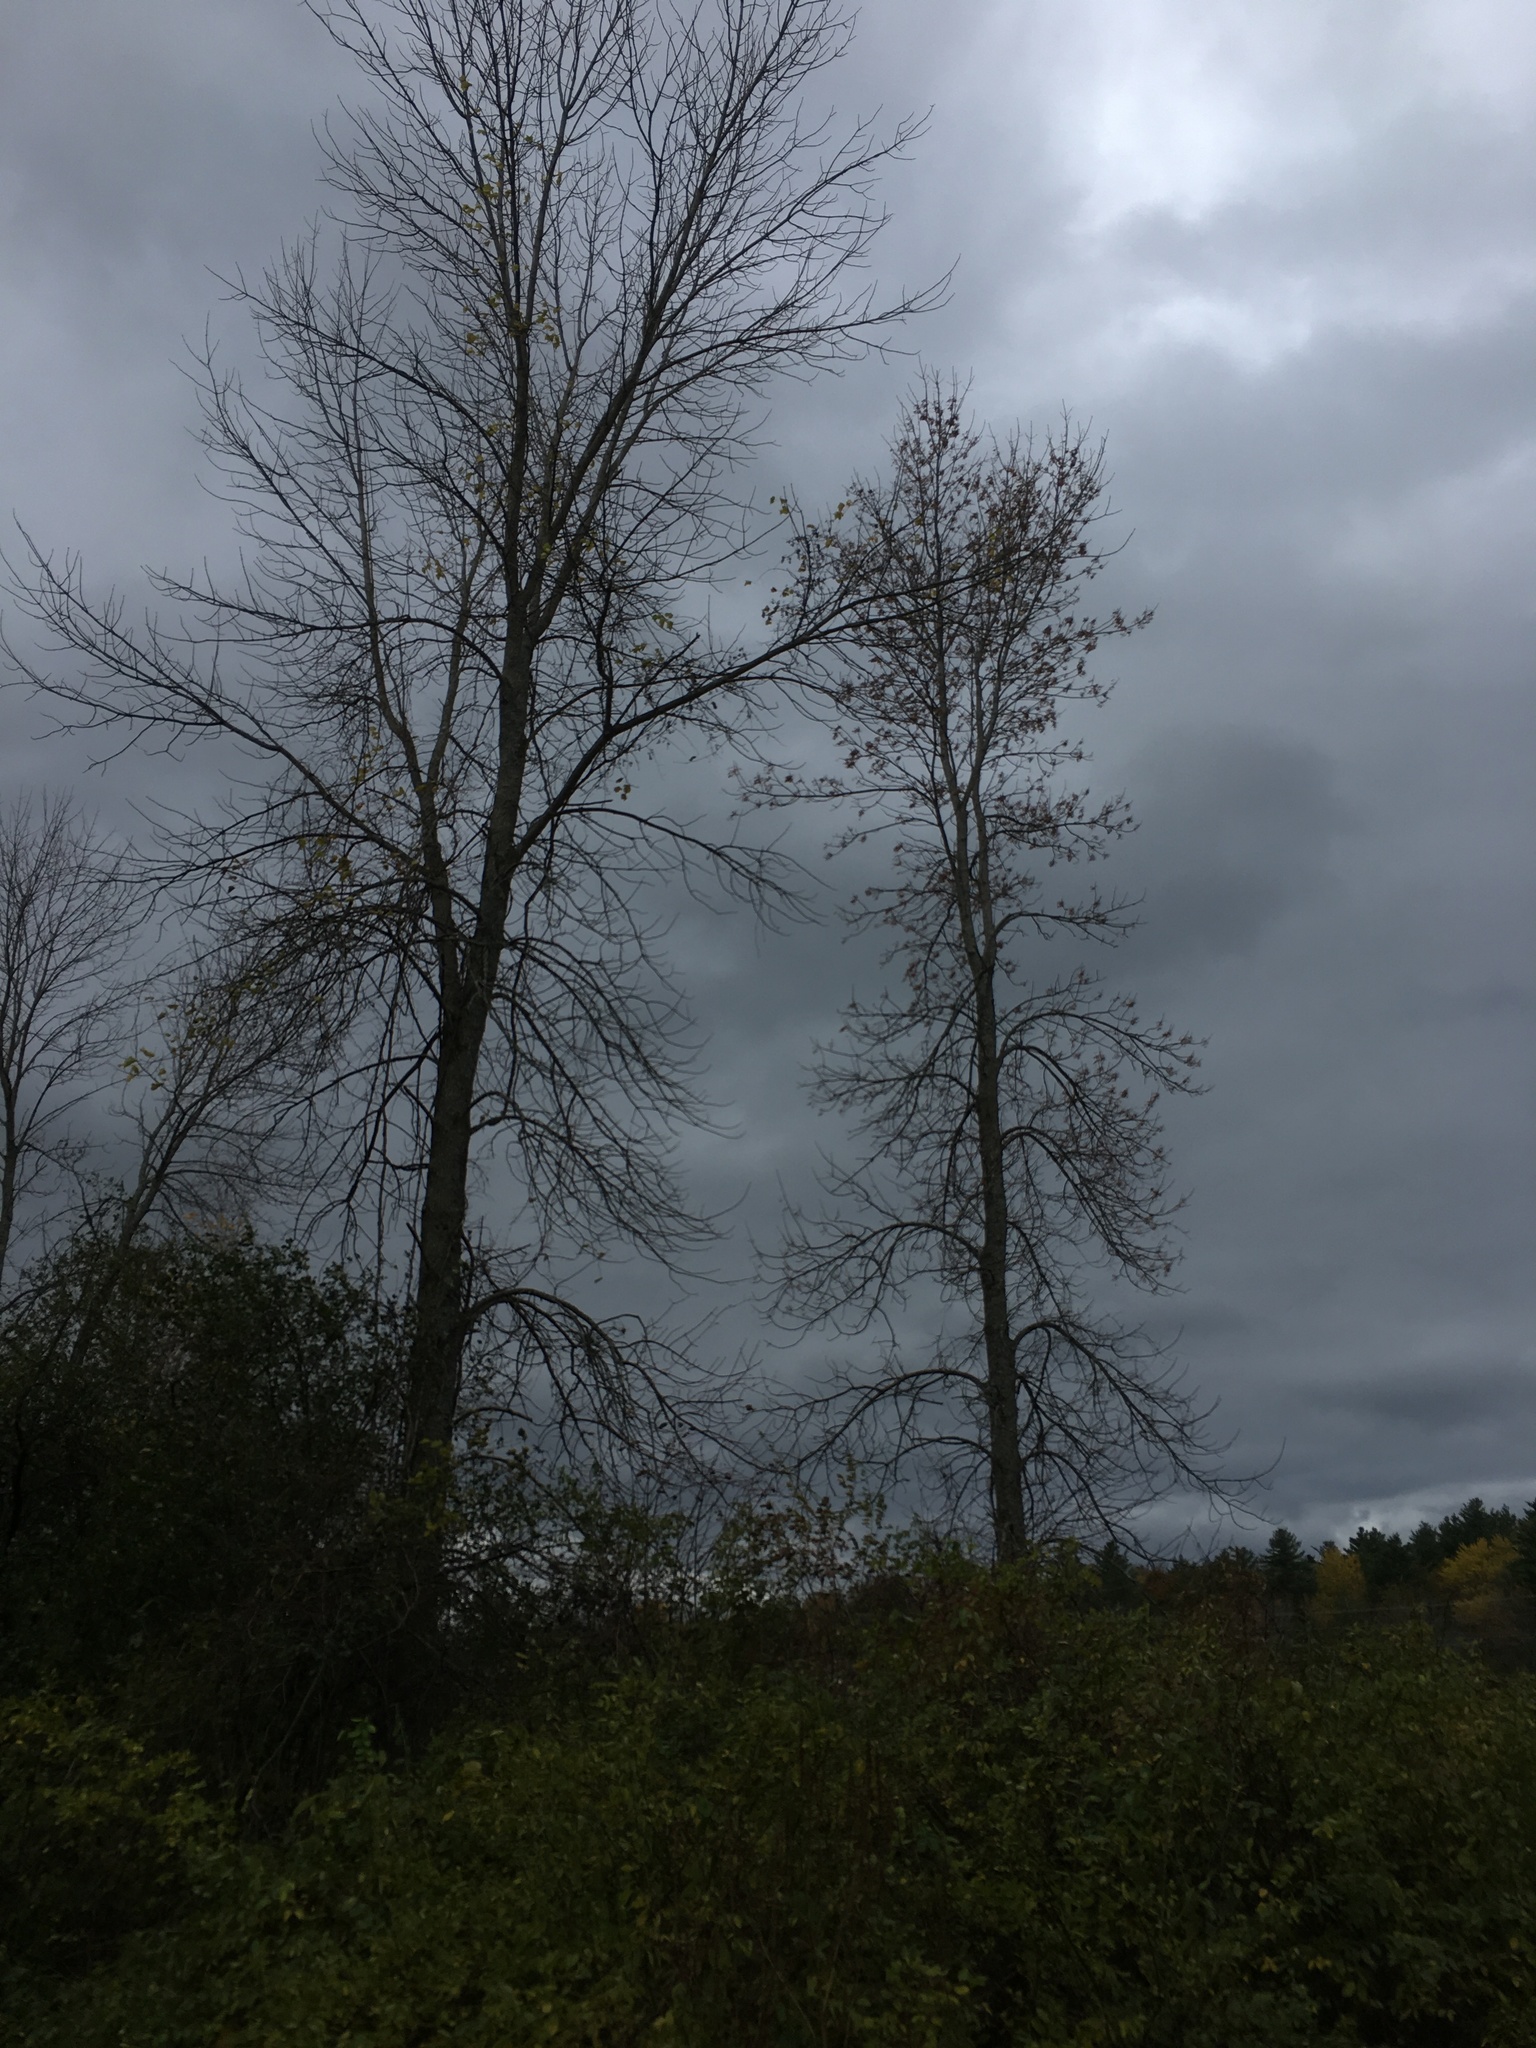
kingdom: Plantae
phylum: Tracheophyta
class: Magnoliopsida
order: Lamiales
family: Oleaceae
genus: Fraxinus
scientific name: Fraxinus pennsylvanica
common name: Green ash
